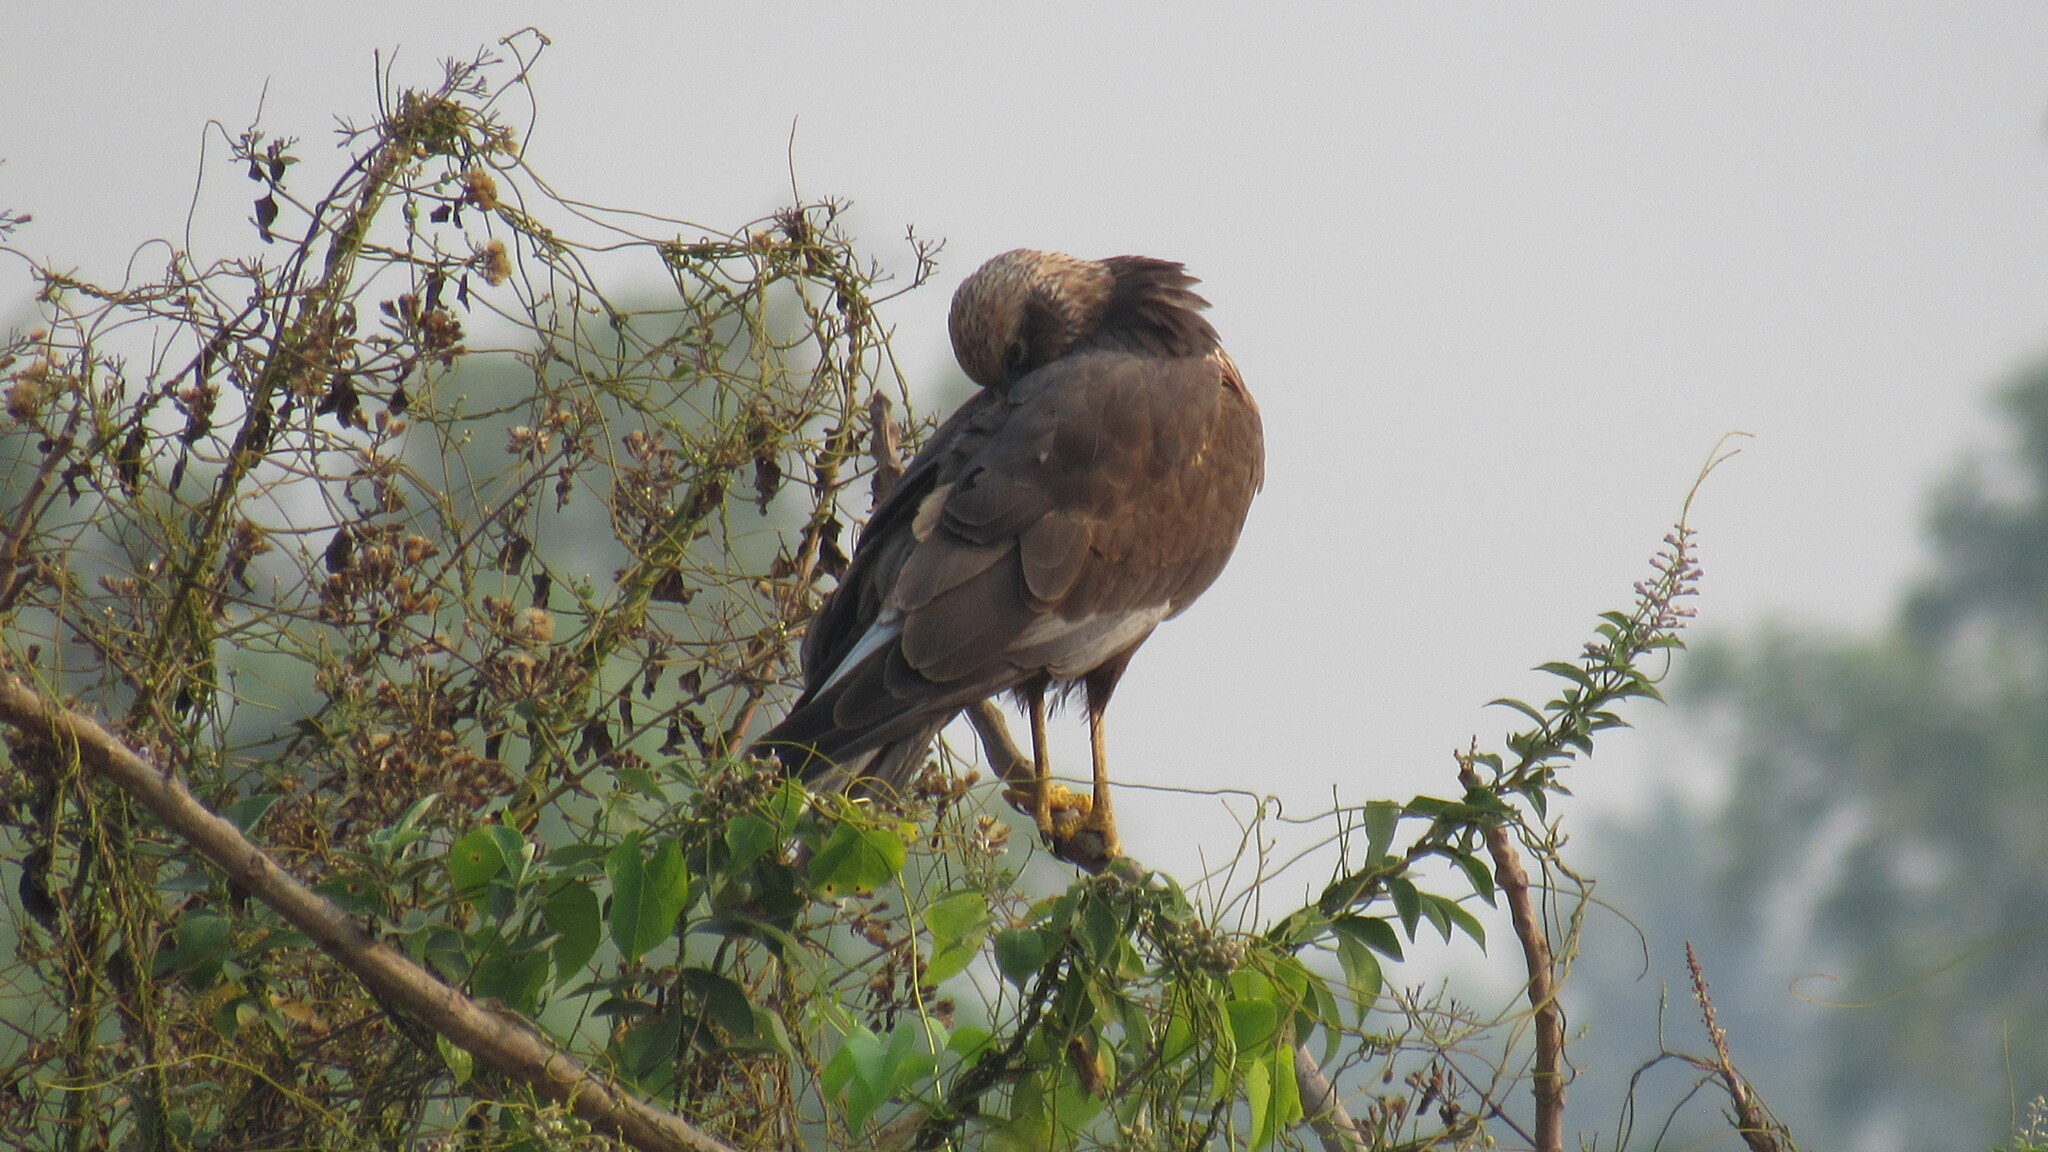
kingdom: Animalia
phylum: Chordata
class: Aves
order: Accipitriformes
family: Accipitridae
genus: Circus
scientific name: Circus aeruginosus
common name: Western marsh harrier
